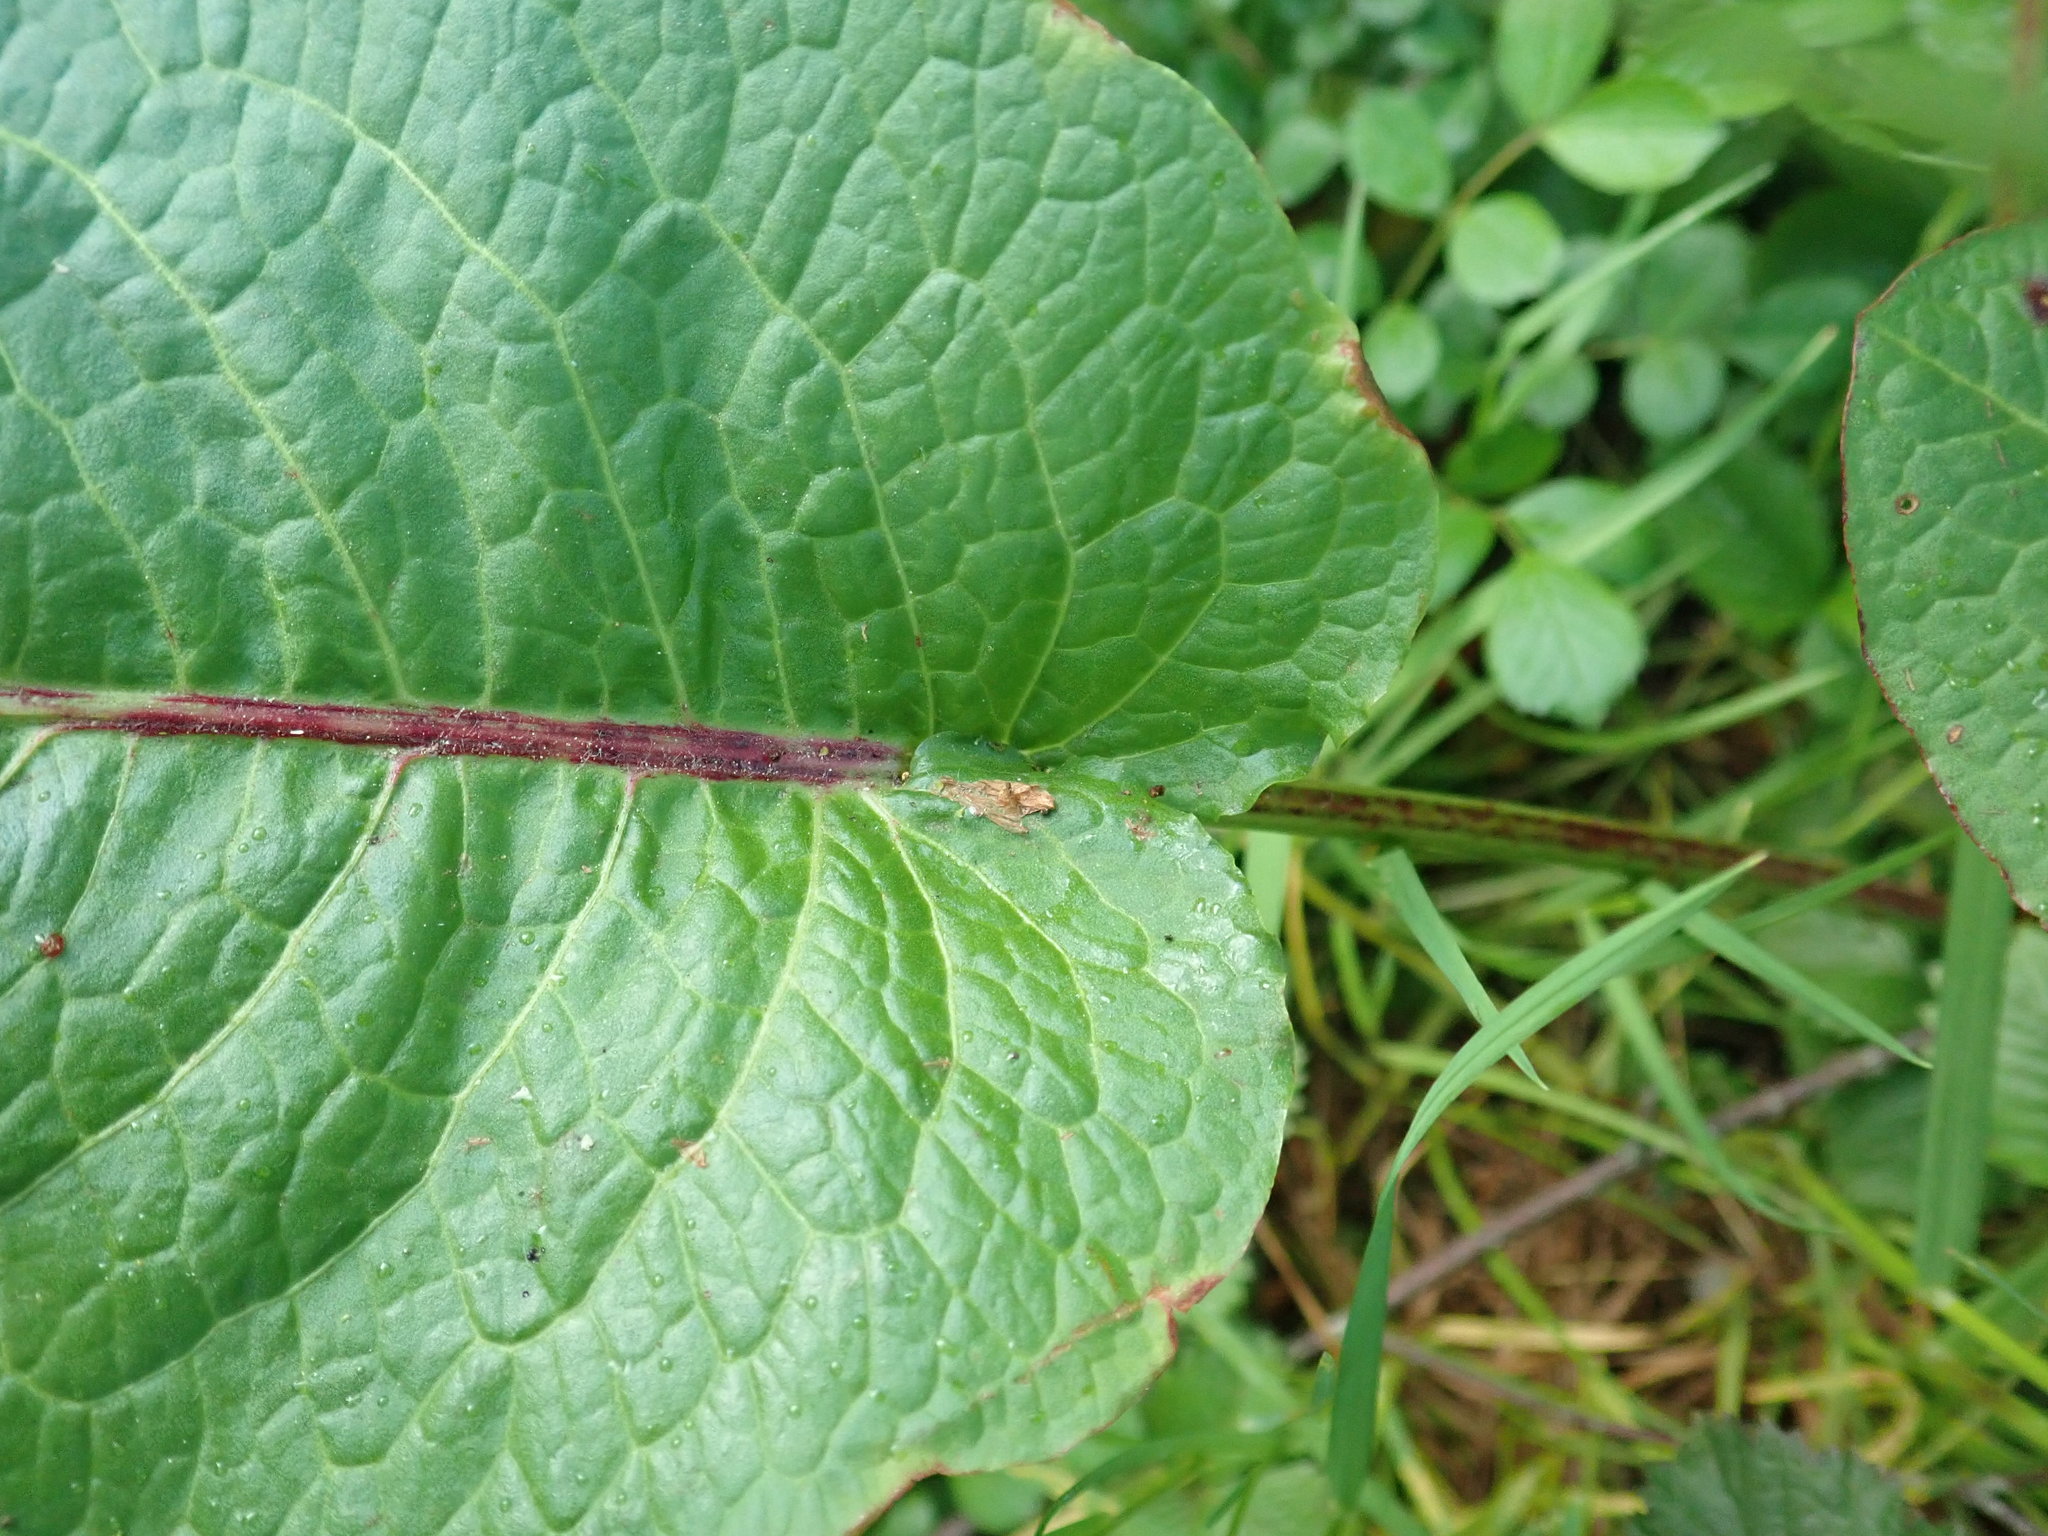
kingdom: Plantae
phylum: Tracheophyta
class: Magnoliopsida
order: Caryophyllales
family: Polygonaceae
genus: Rumex
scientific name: Rumex obtusifolius
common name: Bitter dock
